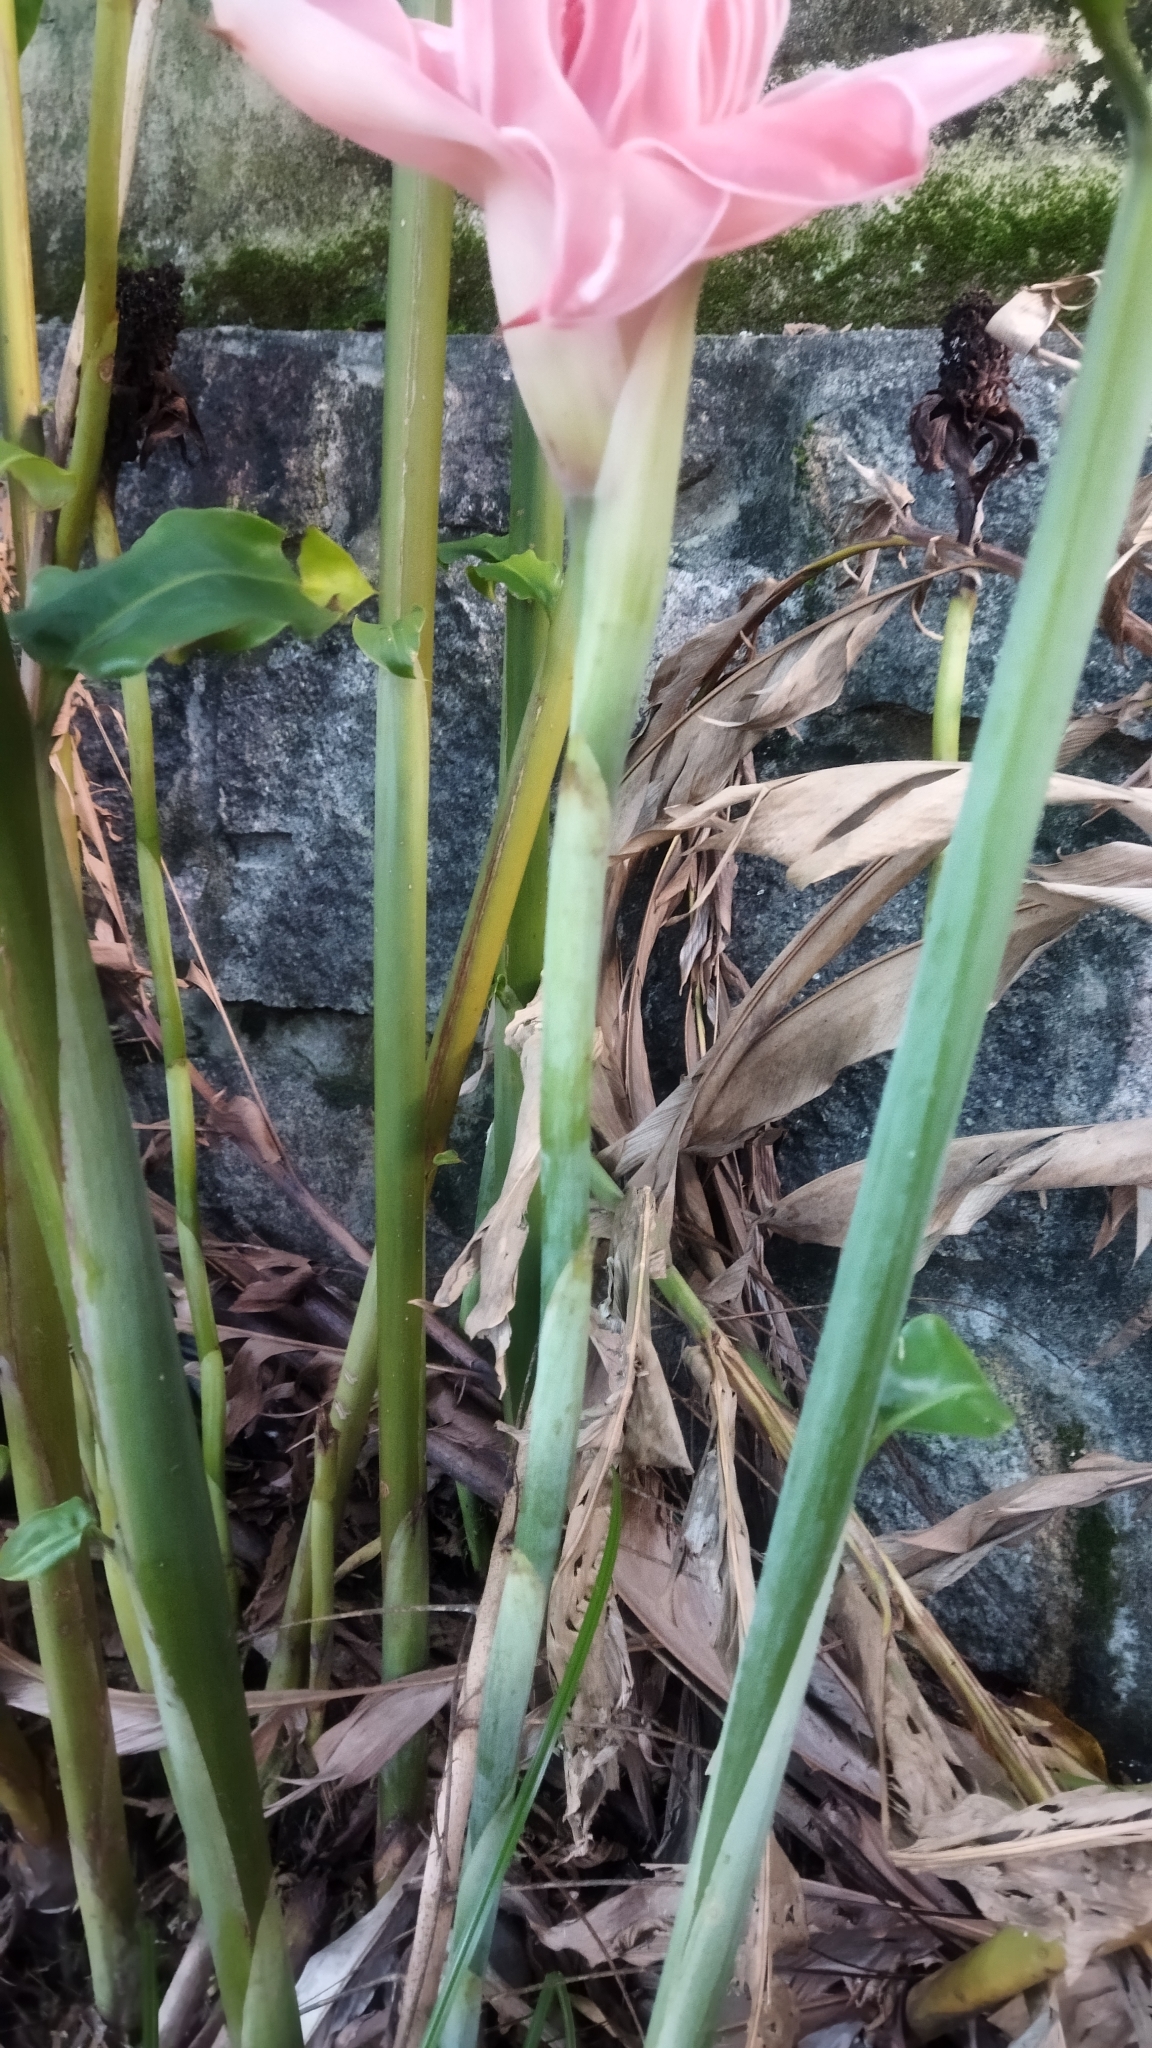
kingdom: Plantae
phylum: Tracheophyta
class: Liliopsida
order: Zingiberales
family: Zingiberaceae
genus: Etlingera
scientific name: Etlingera elatior
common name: Philippine waxflower
